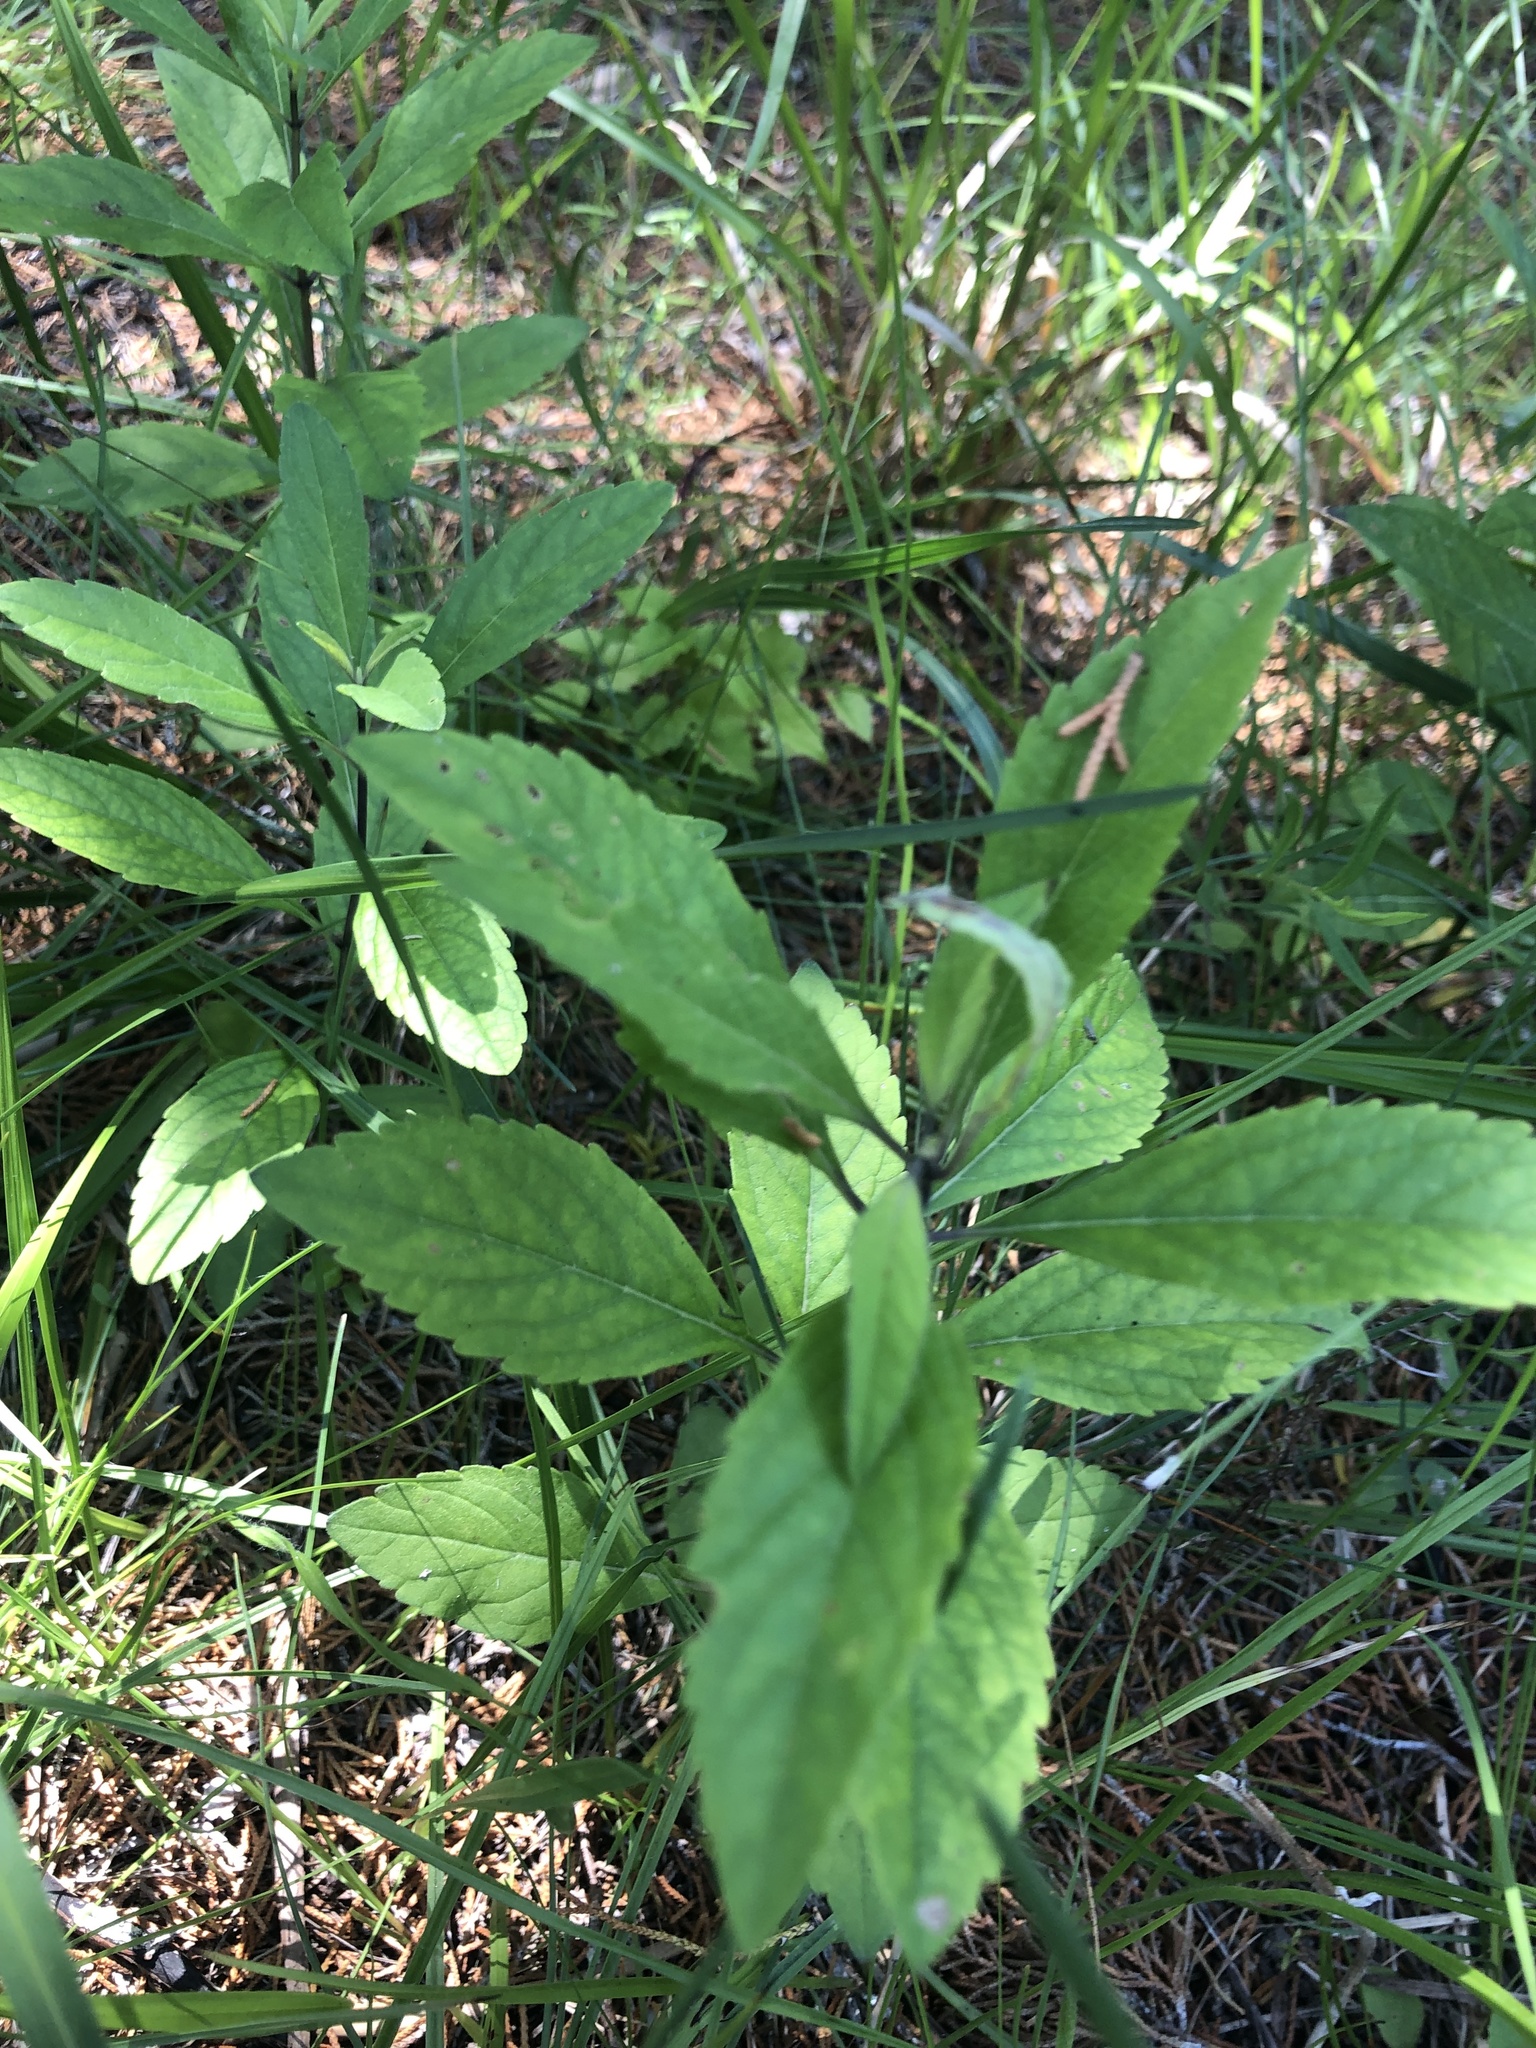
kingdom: Plantae
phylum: Tracheophyta
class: Magnoliopsida
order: Lamiales
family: Lamiaceae
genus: Salvia
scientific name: Salvia azurea
